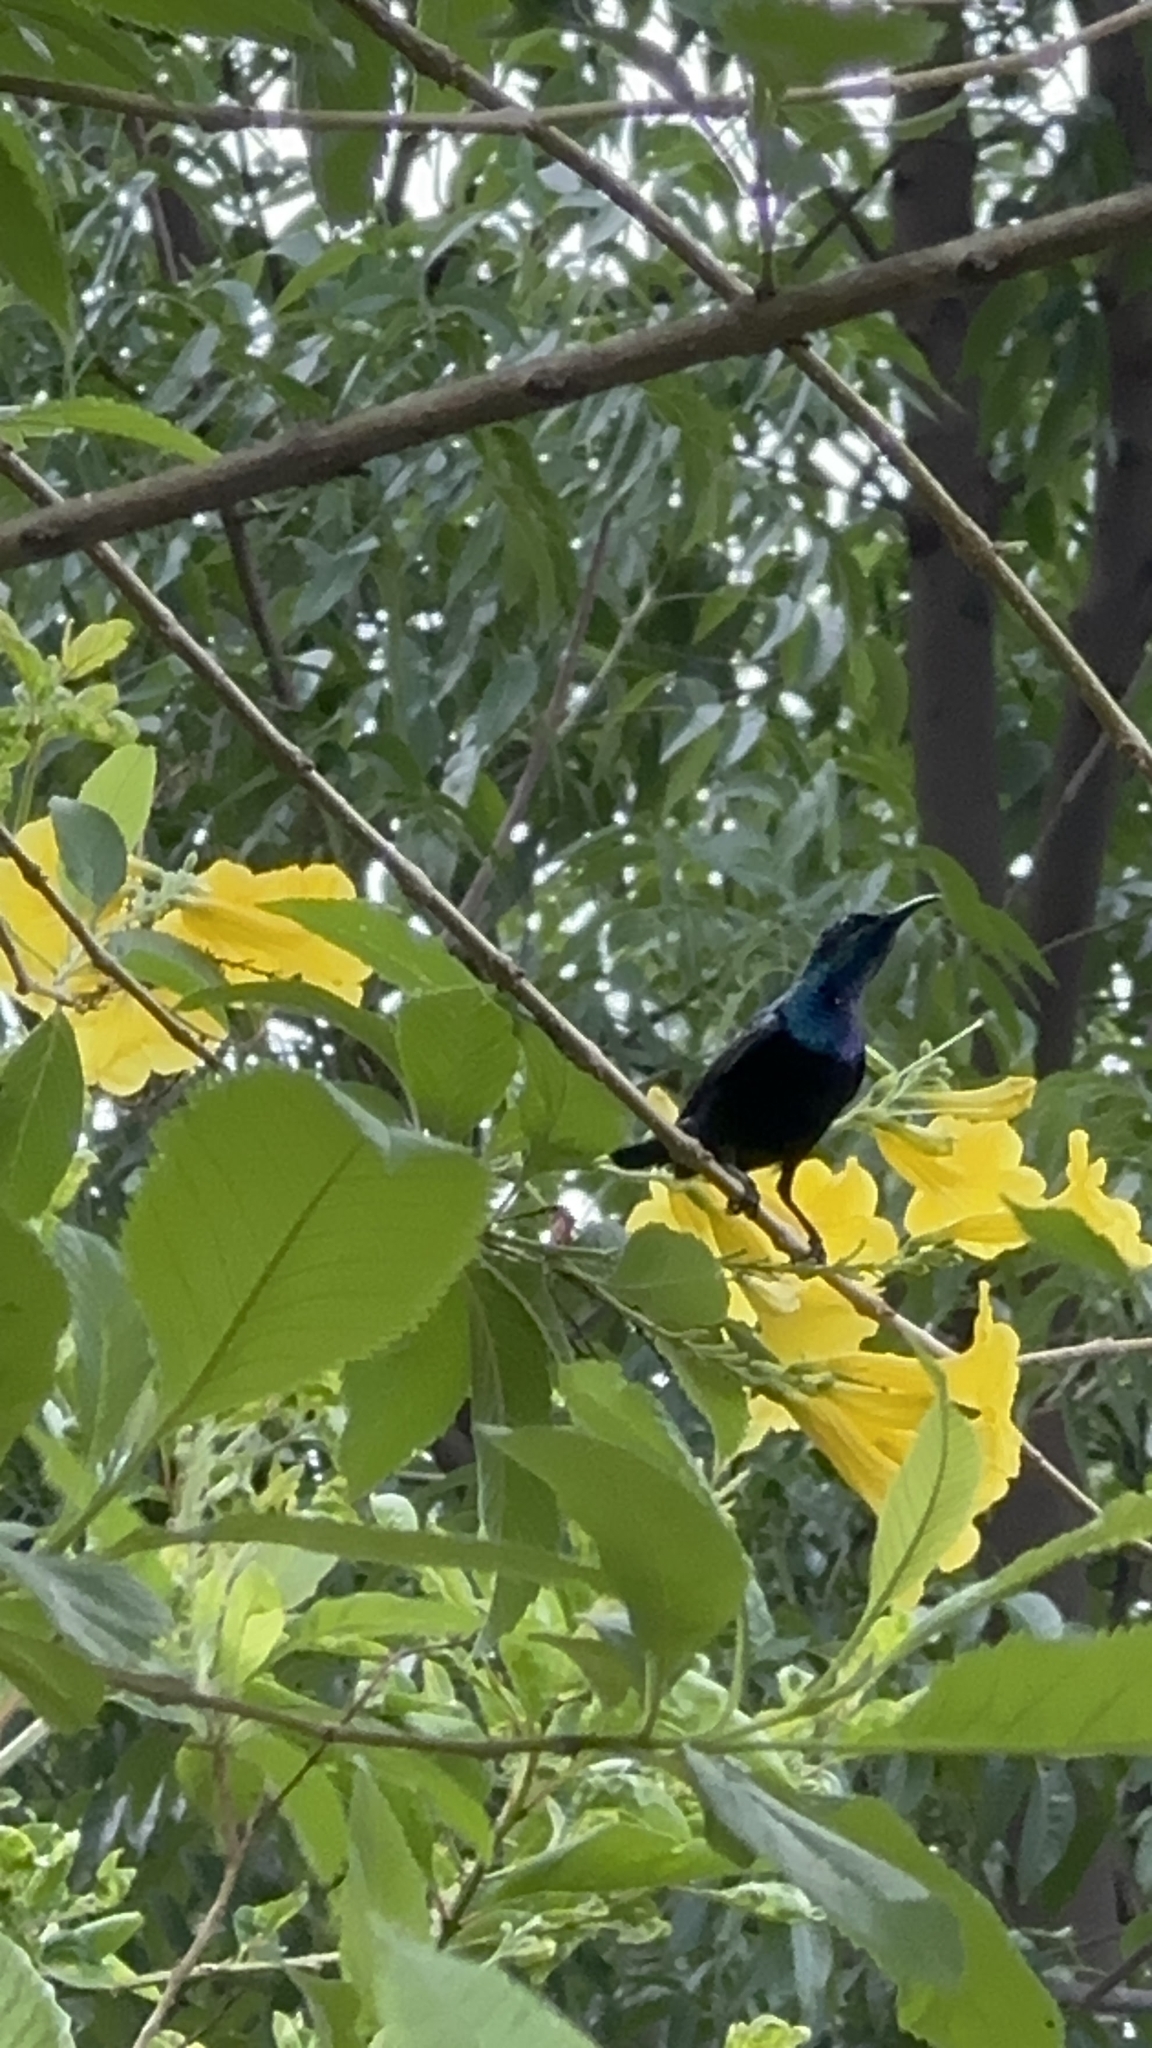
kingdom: Animalia
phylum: Chordata
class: Aves
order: Passeriformes
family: Nectariniidae
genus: Cinnyris
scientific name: Cinnyris asiaticus
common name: Purple sunbird
